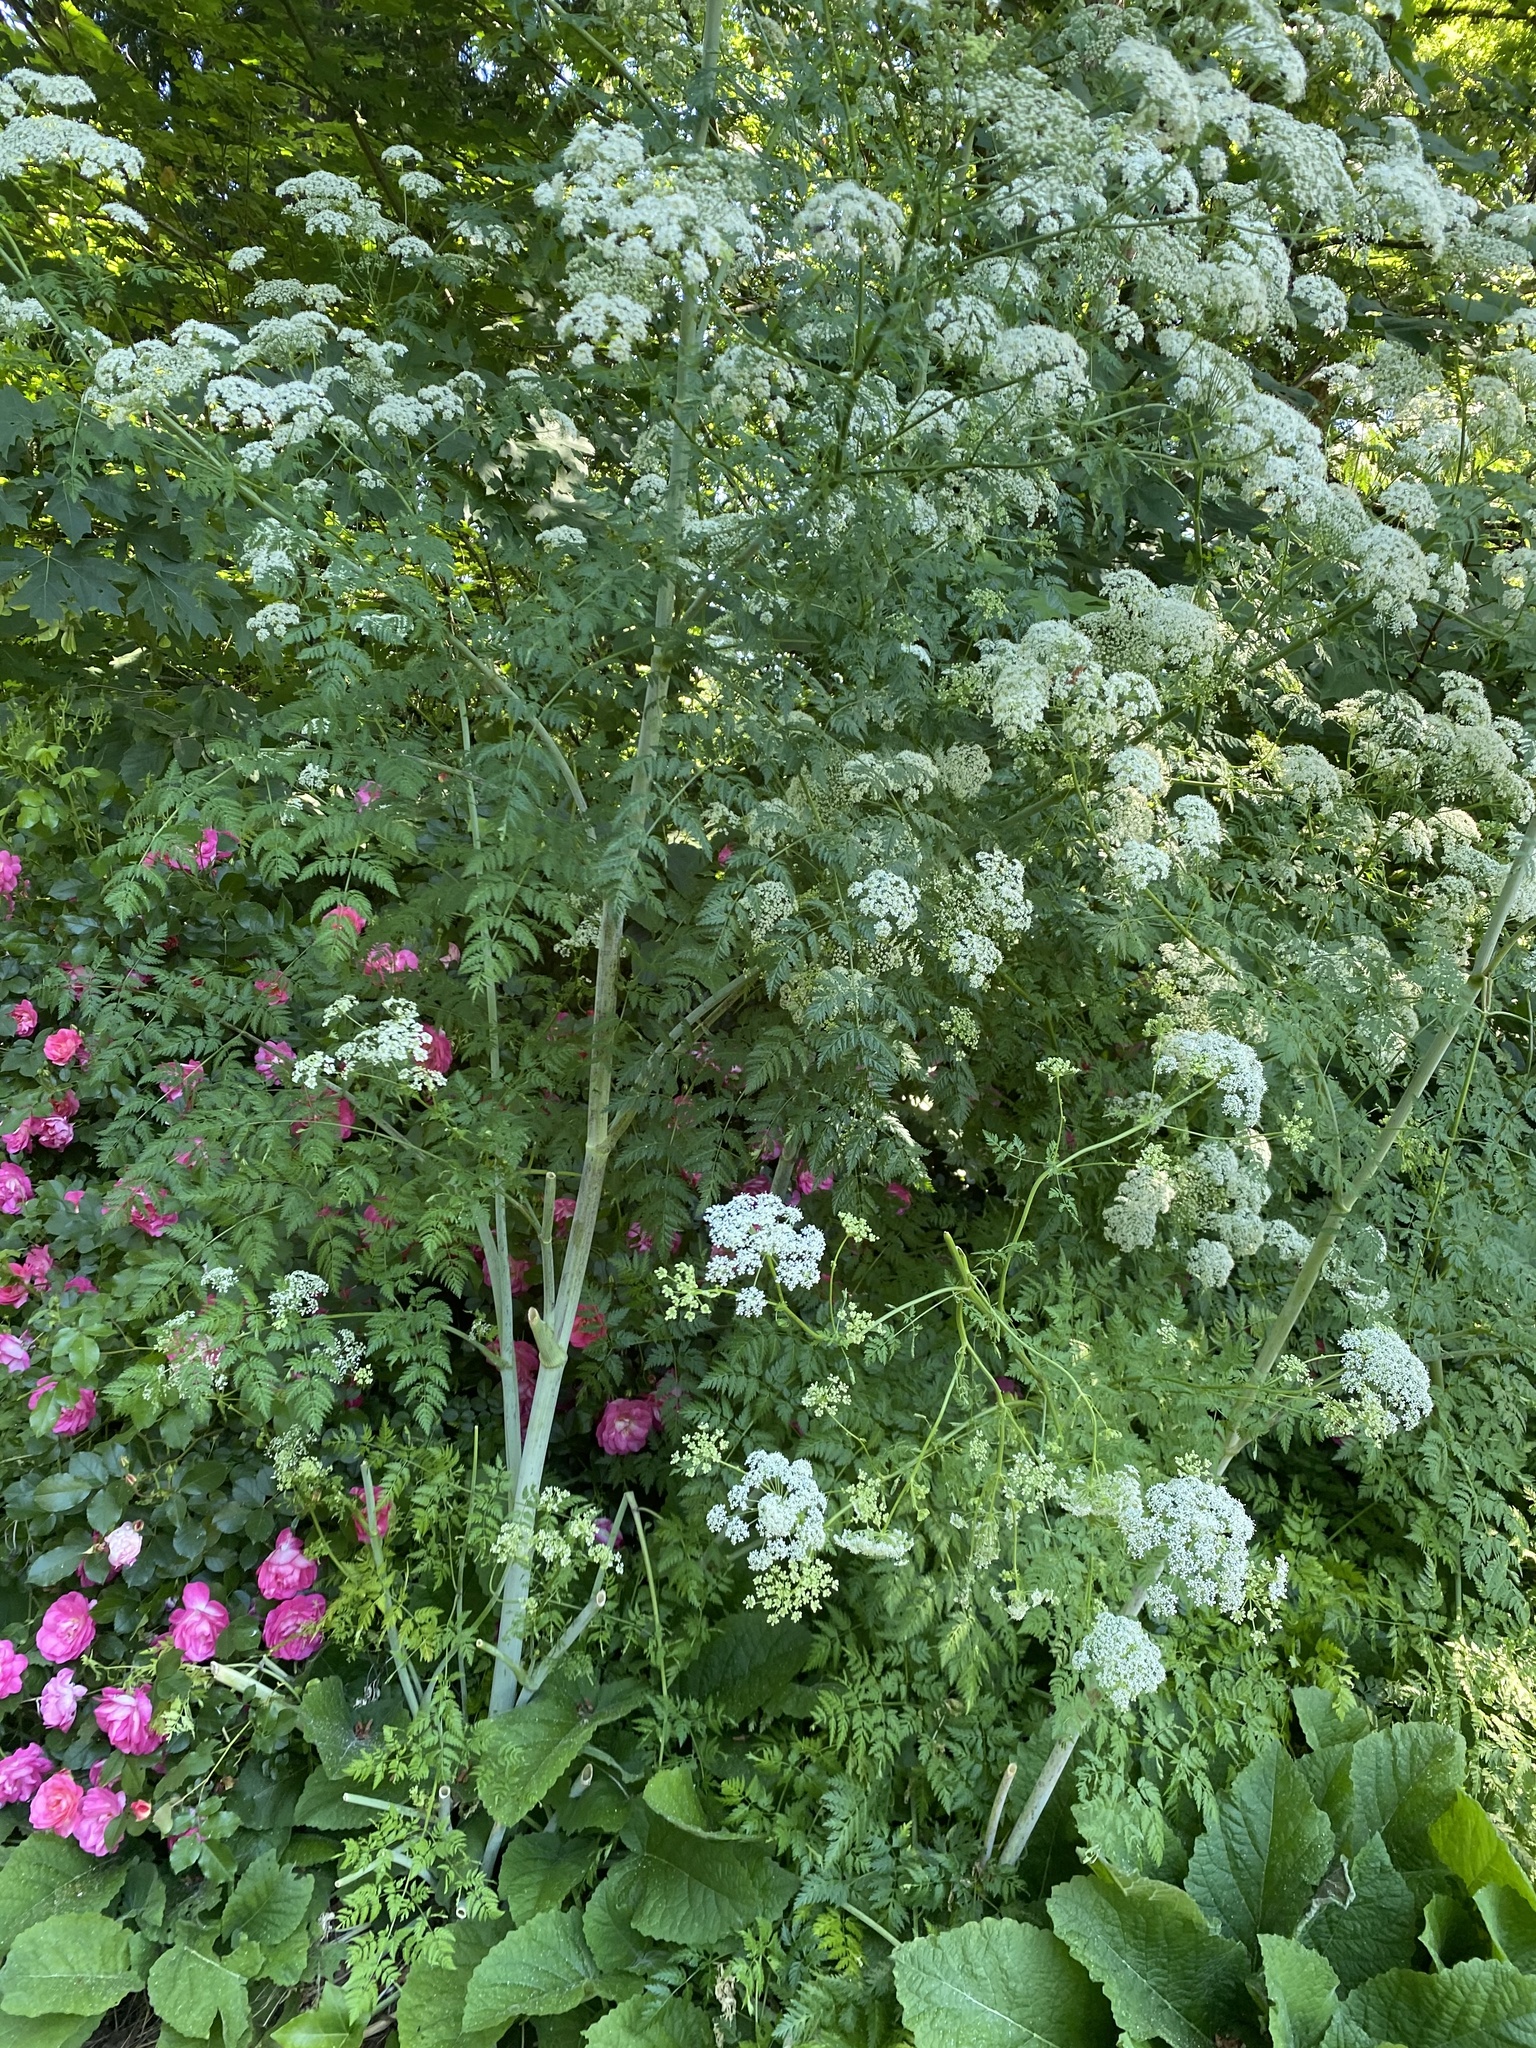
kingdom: Plantae
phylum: Tracheophyta
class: Magnoliopsida
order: Apiales
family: Apiaceae
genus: Conium
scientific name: Conium maculatum
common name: Hemlock
